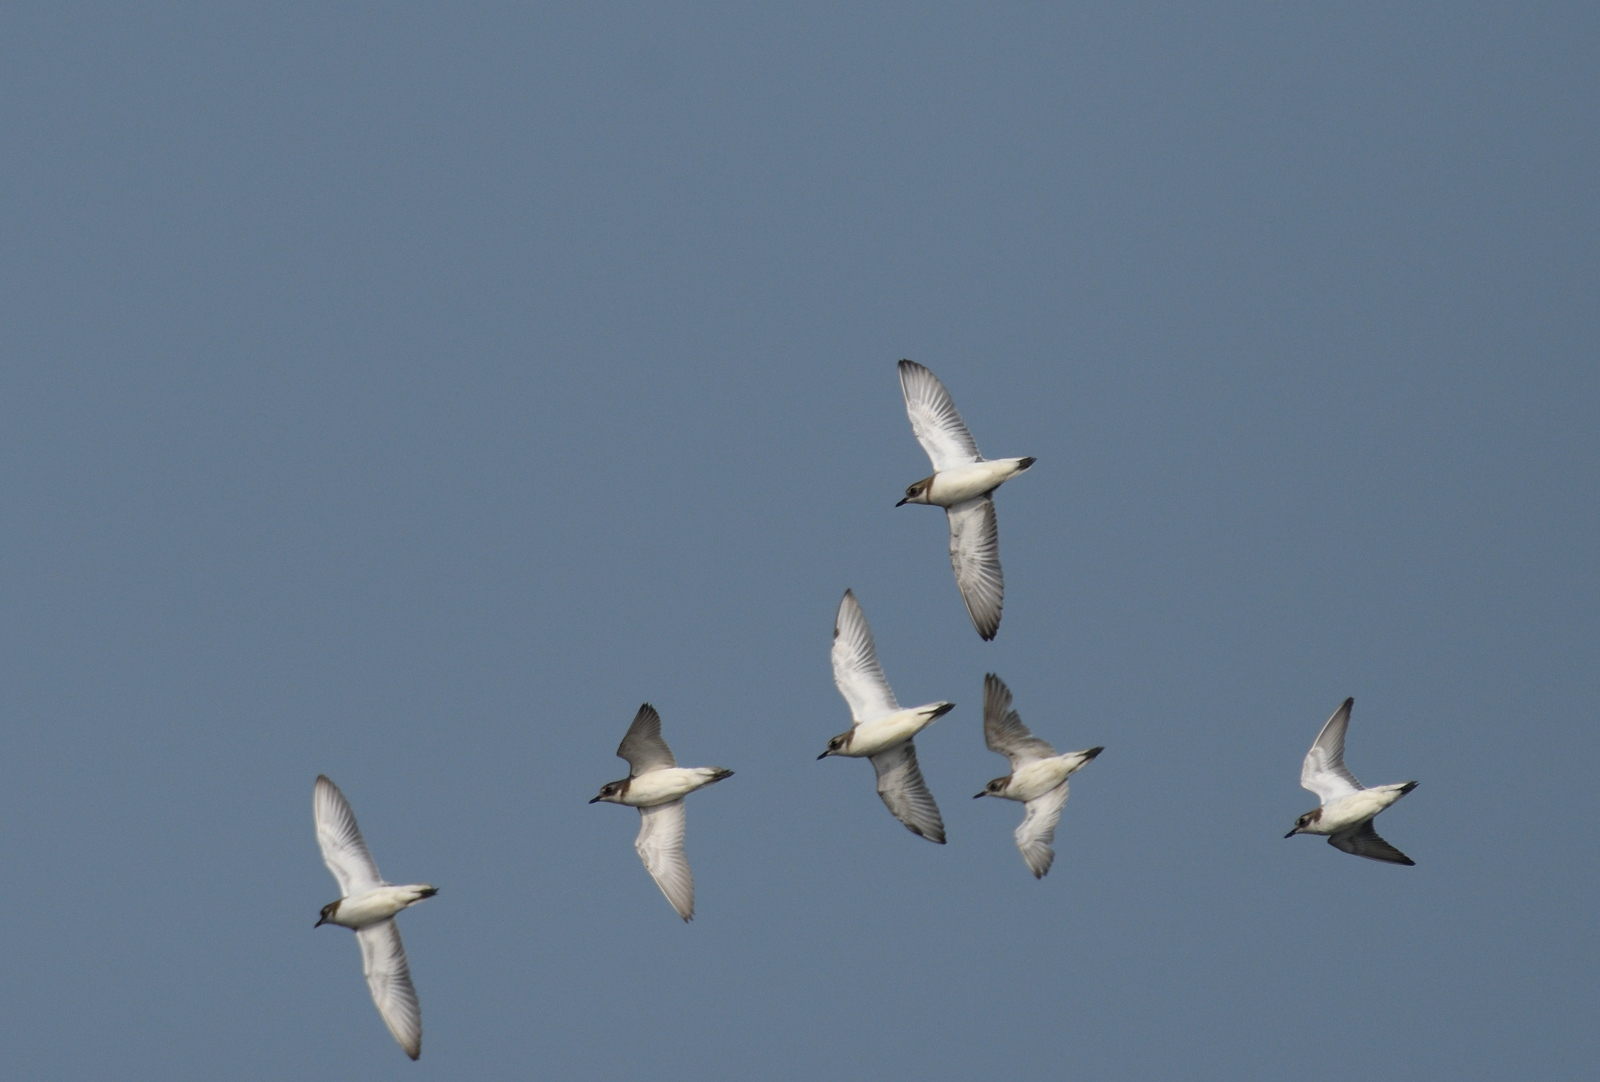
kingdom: Animalia
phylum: Chordata
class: Aves
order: Charadriiformes
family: Charadriidae
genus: Anarhynchus
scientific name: Anarhynchus
